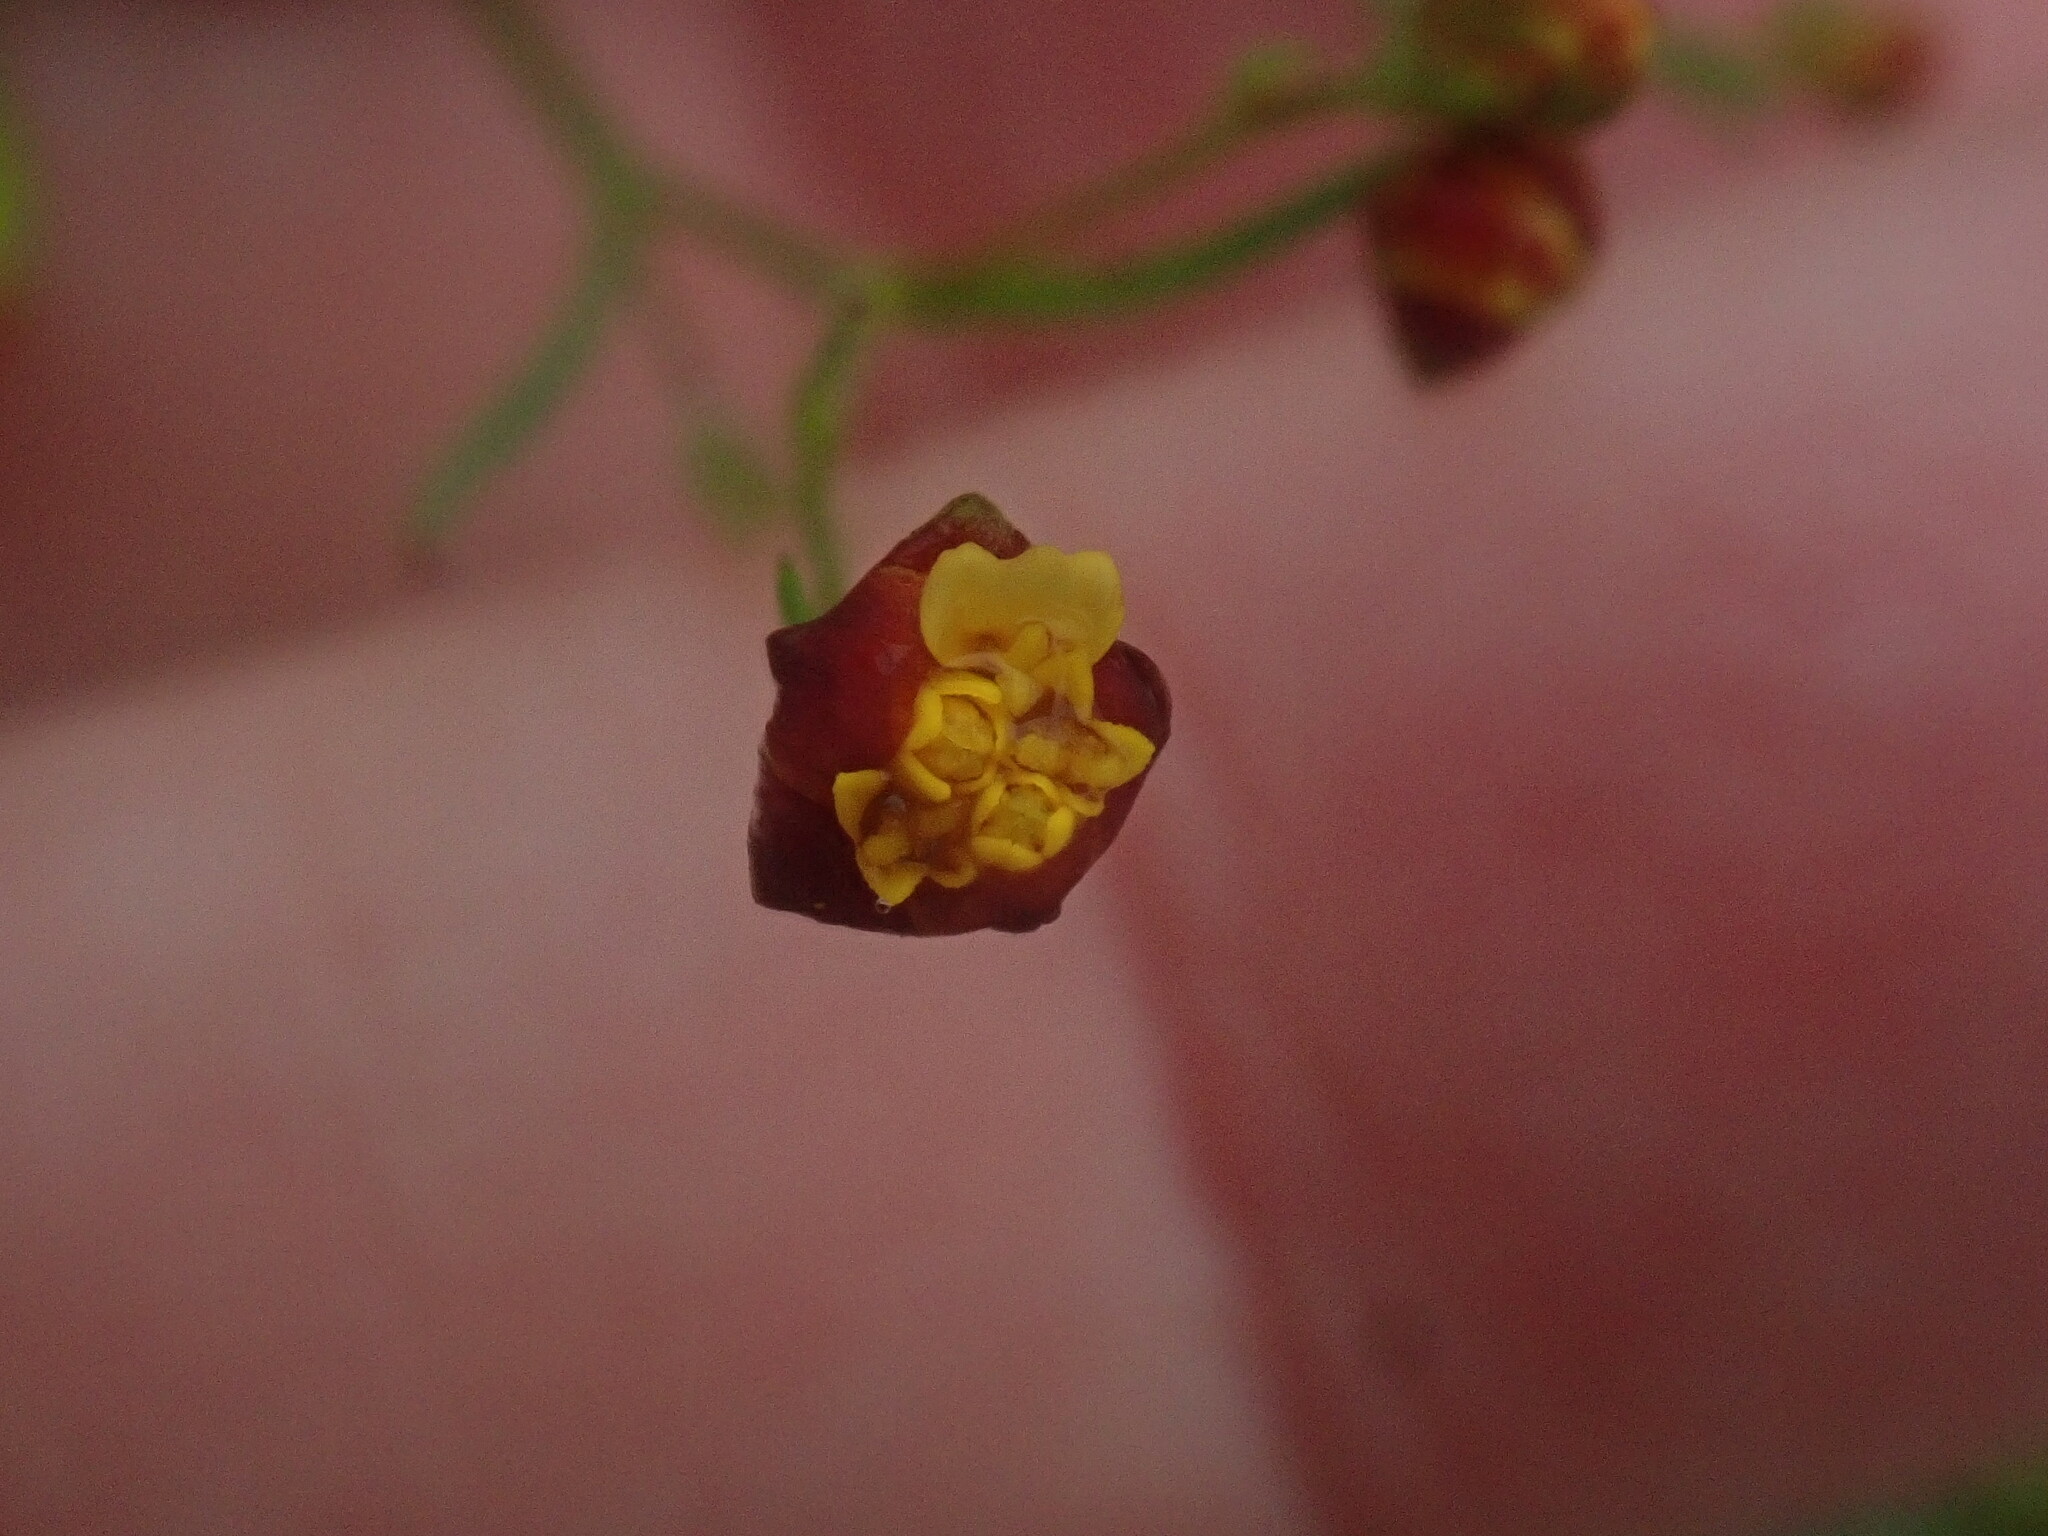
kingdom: Plantae
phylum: Tracheophyta
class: Magnoliopsida
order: Asterales
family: Asteraceae
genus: Schkuhria
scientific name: Schkuhria pinnata
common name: Dwarf marigold
